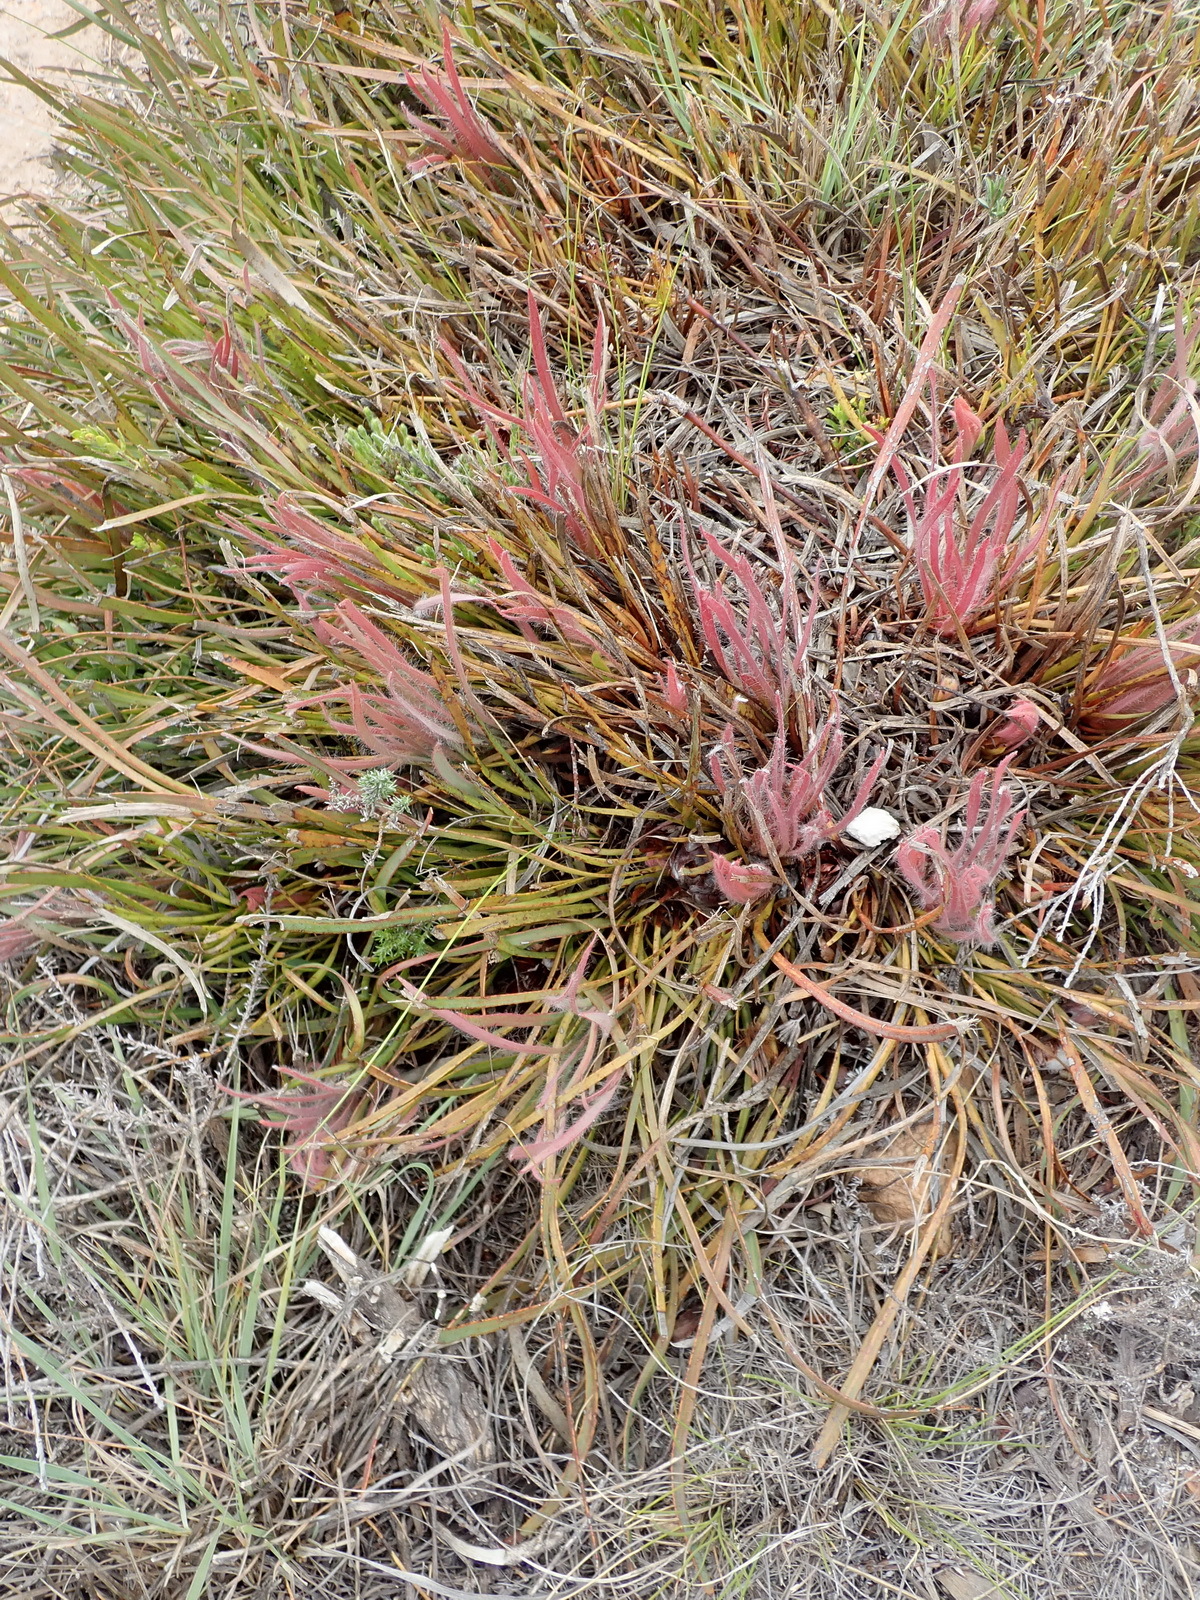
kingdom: Plantae
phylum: Tracheophyta
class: Magnoliopsida
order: Proteales
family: Proteaceae
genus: Protea
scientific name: Protea montana
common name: Swartberg sugarbush
